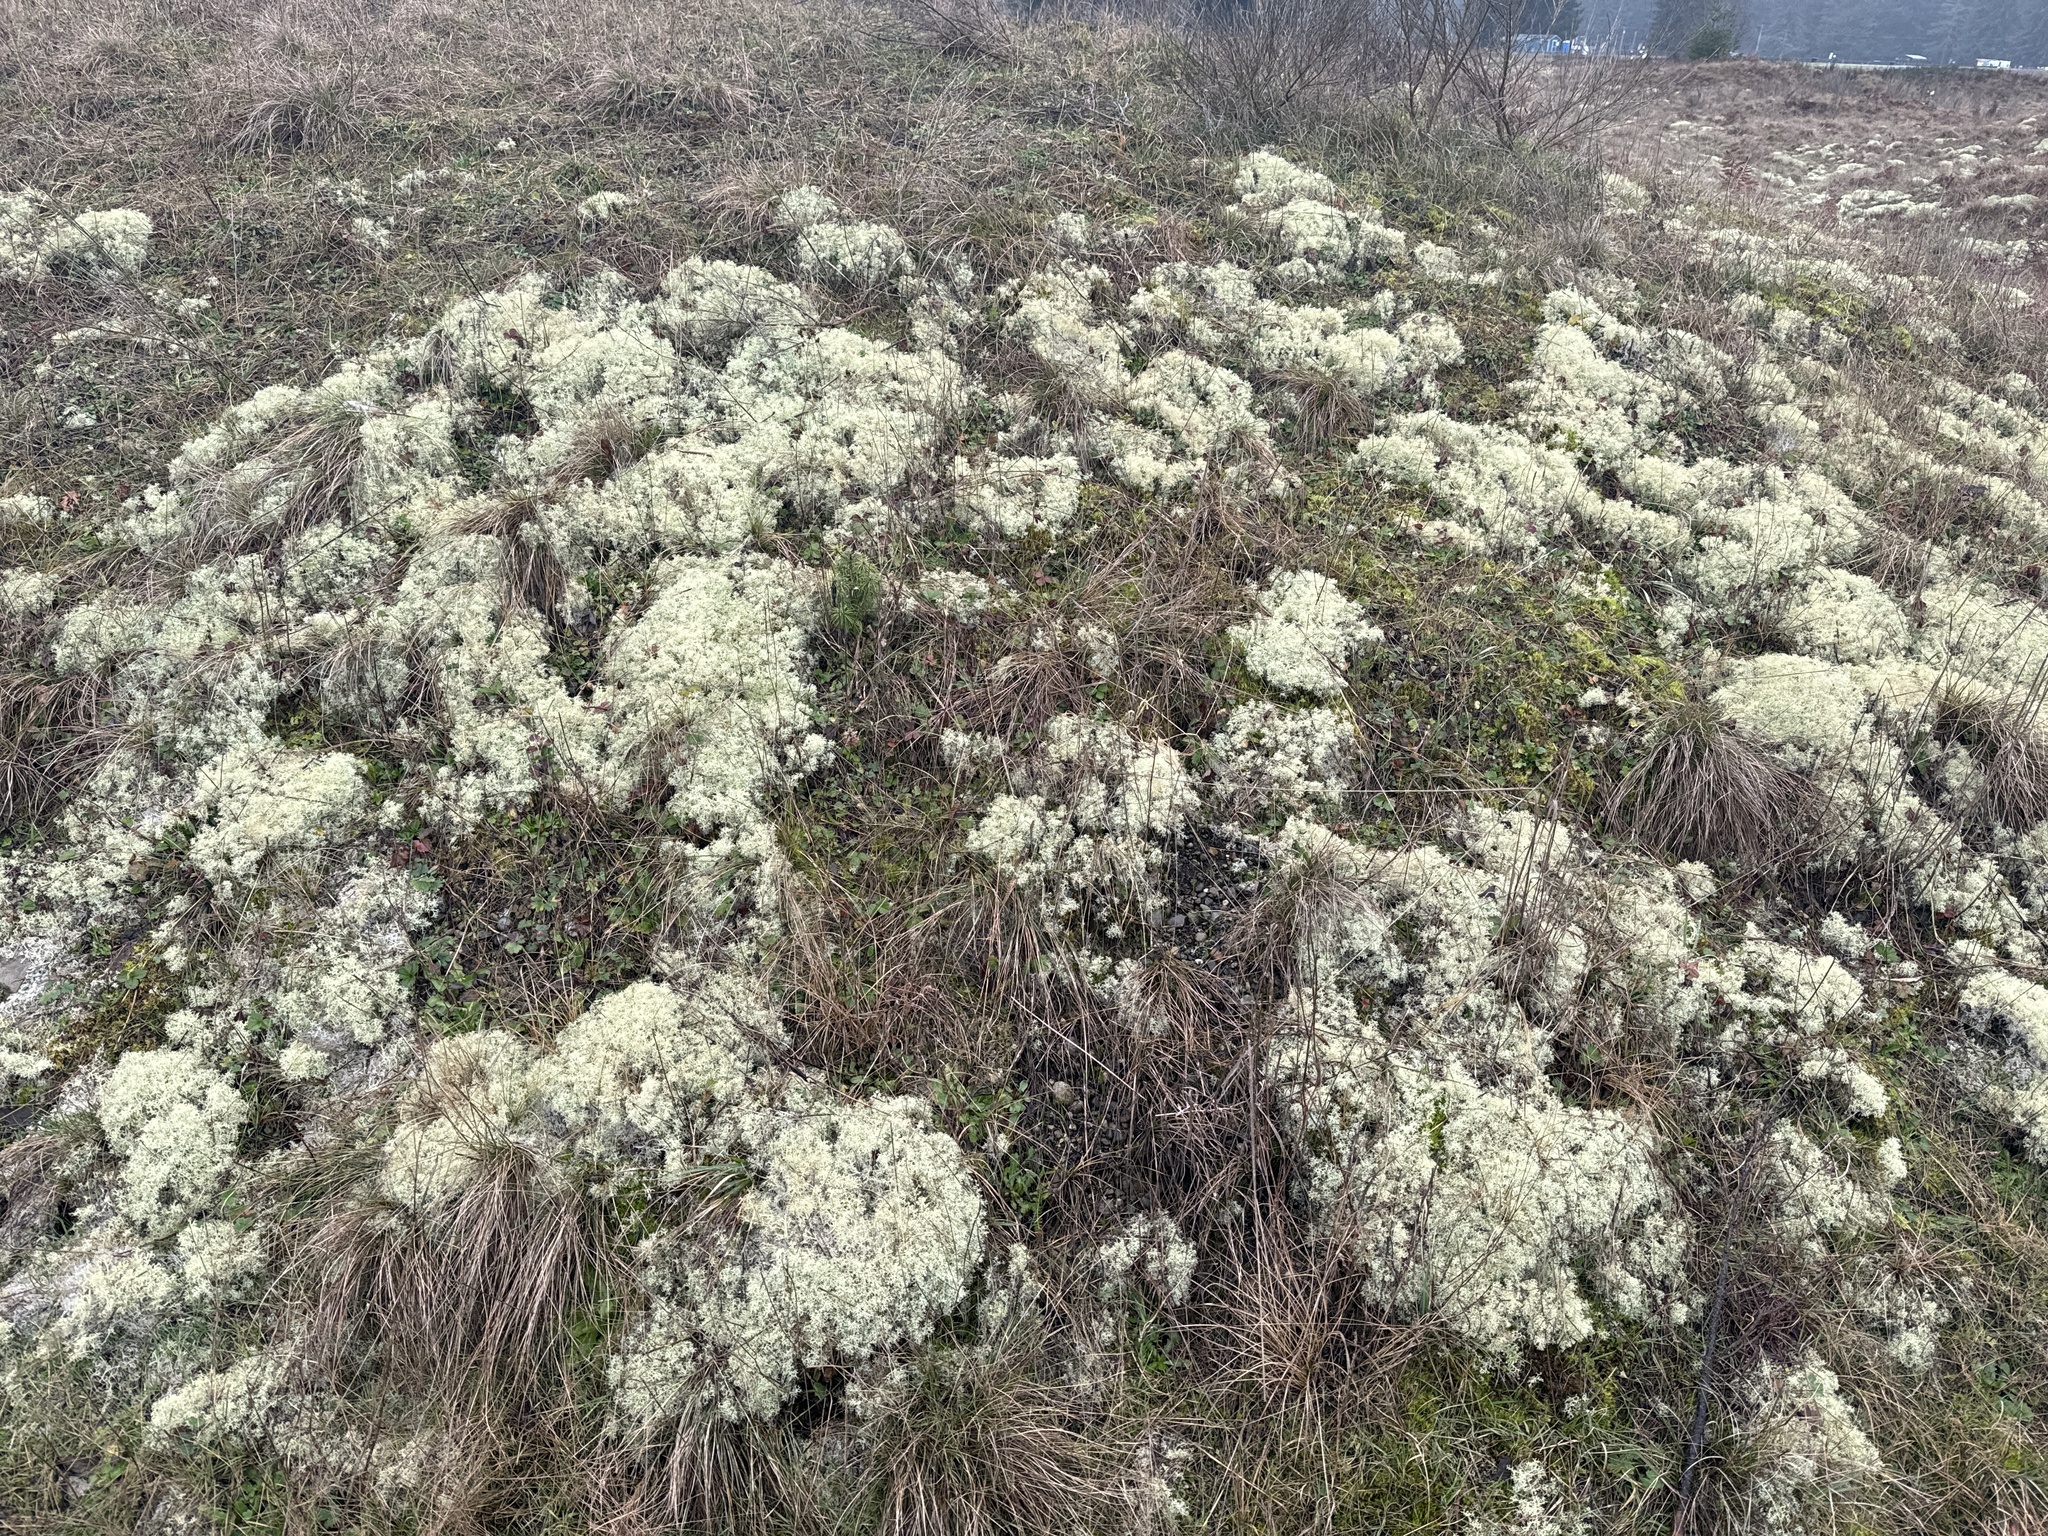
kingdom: Fungi
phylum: Ascomycota
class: Lecanoromycetes
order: Lecanorales
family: Cladoniaceae
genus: Cladonia
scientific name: Cladonia arbuscula
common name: Reindeer lichen
